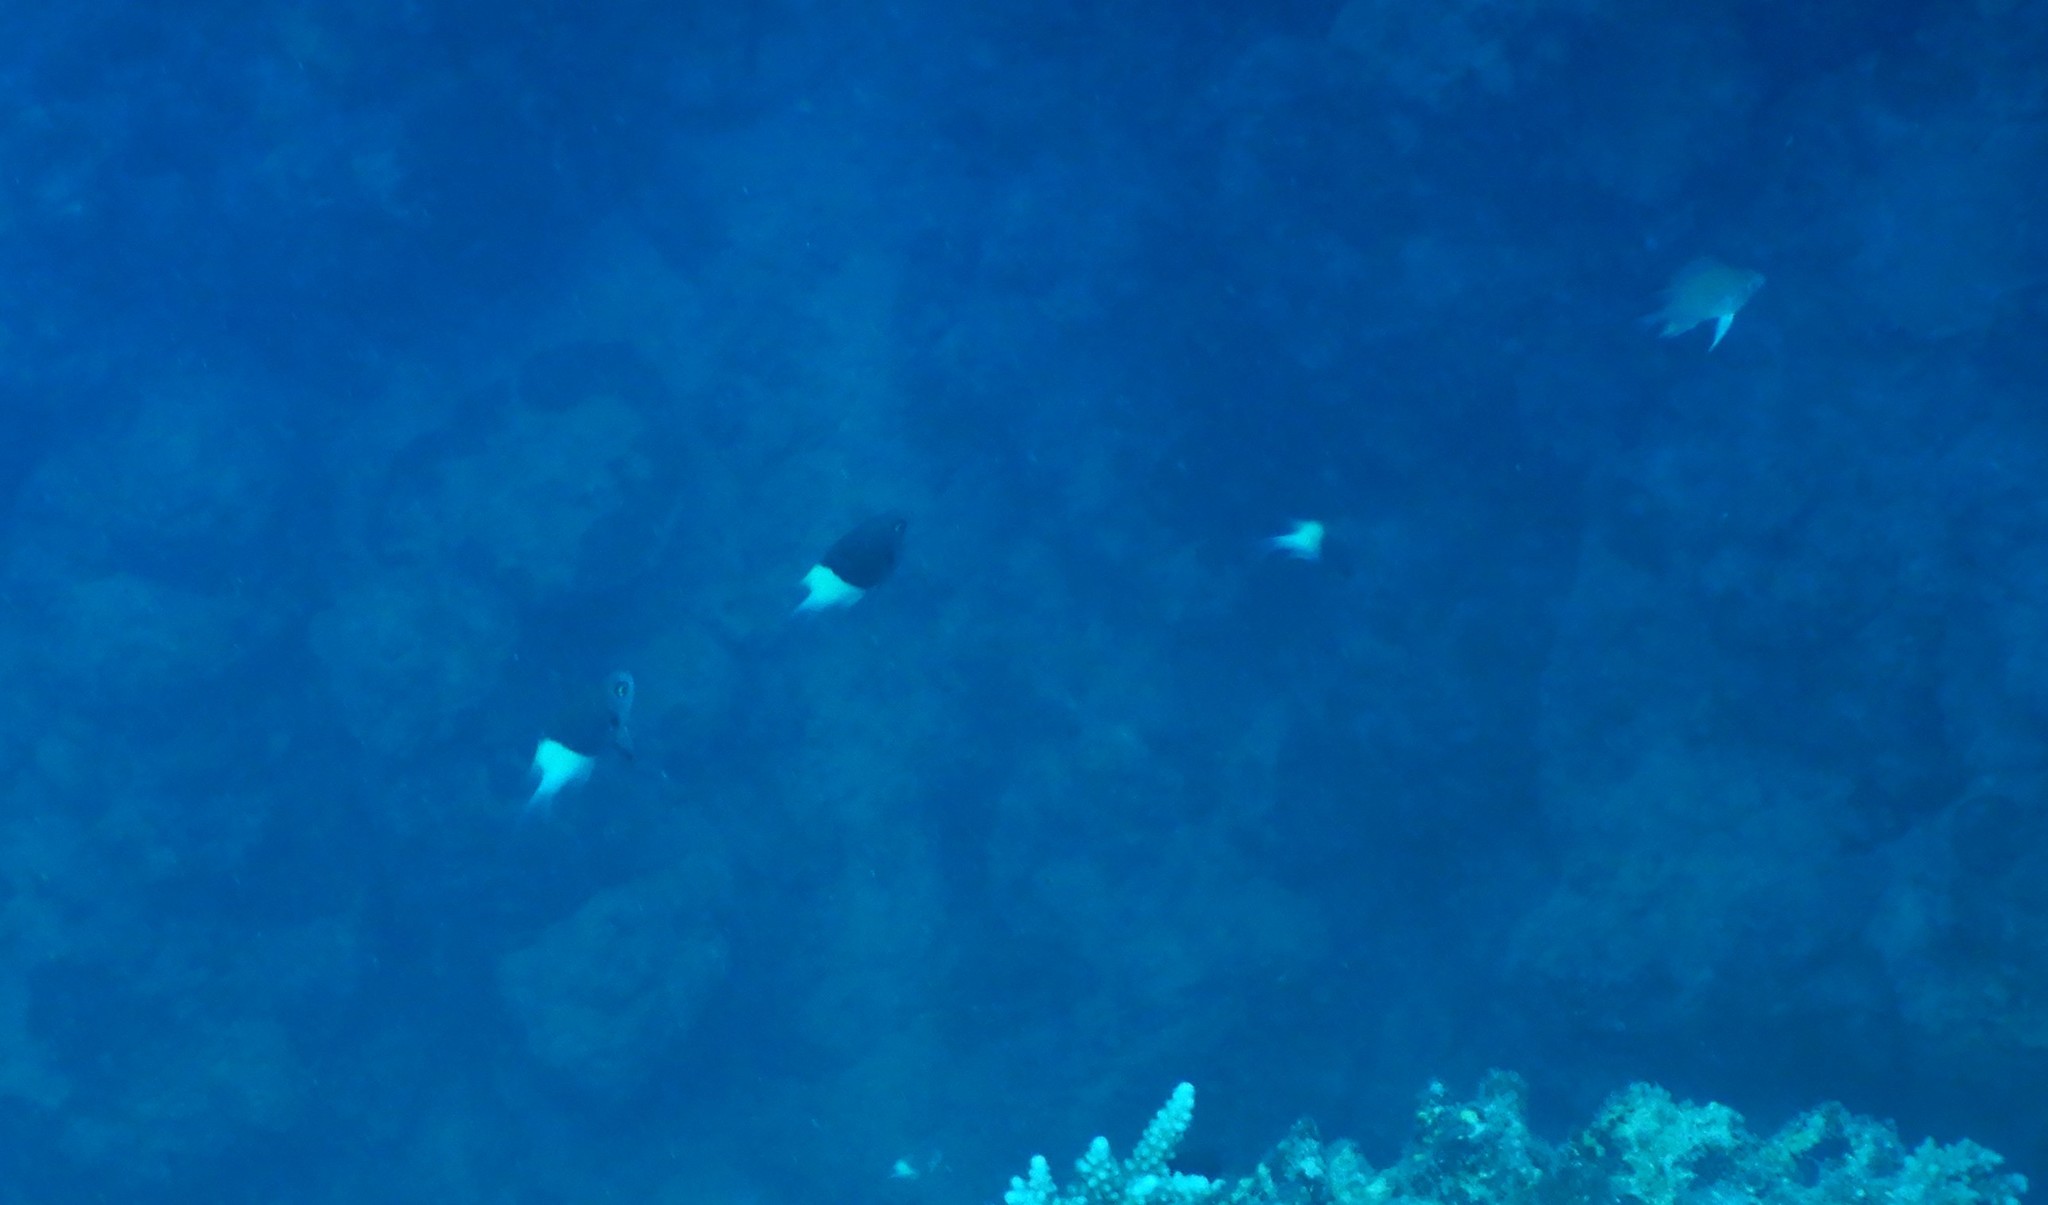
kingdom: Animalia
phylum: Chordata
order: Perciformes
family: Pomacentridae
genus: Chromis
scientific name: Chromis dimidiata
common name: Half-and-half chromis
